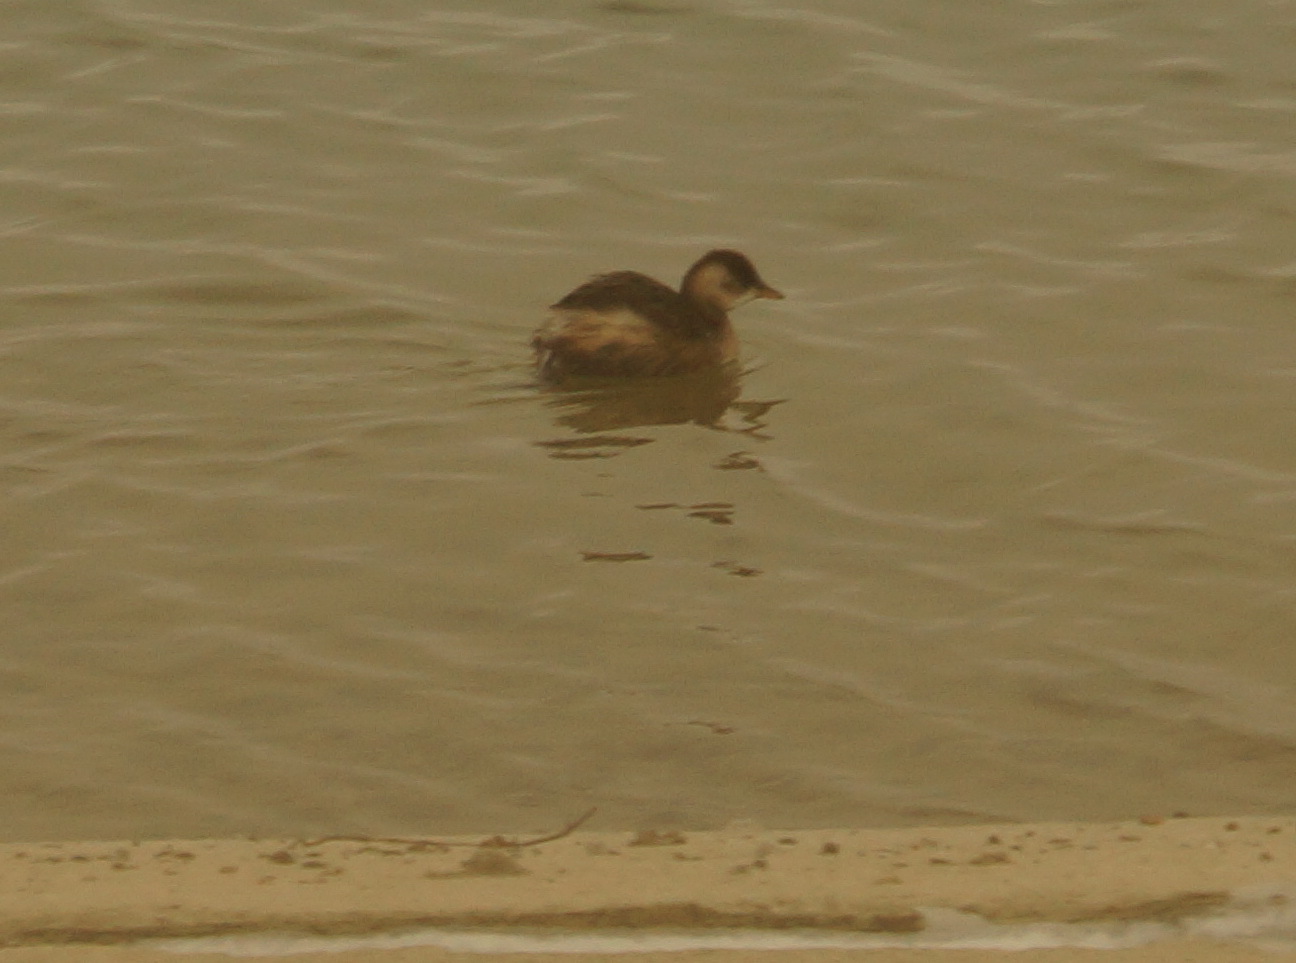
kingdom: Animalia
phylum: Chordata
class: Aves
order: Podicipediformes
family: Podicipedidae
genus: Tachybaptus
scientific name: Tachybaptus ruficollis
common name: Little grebe
